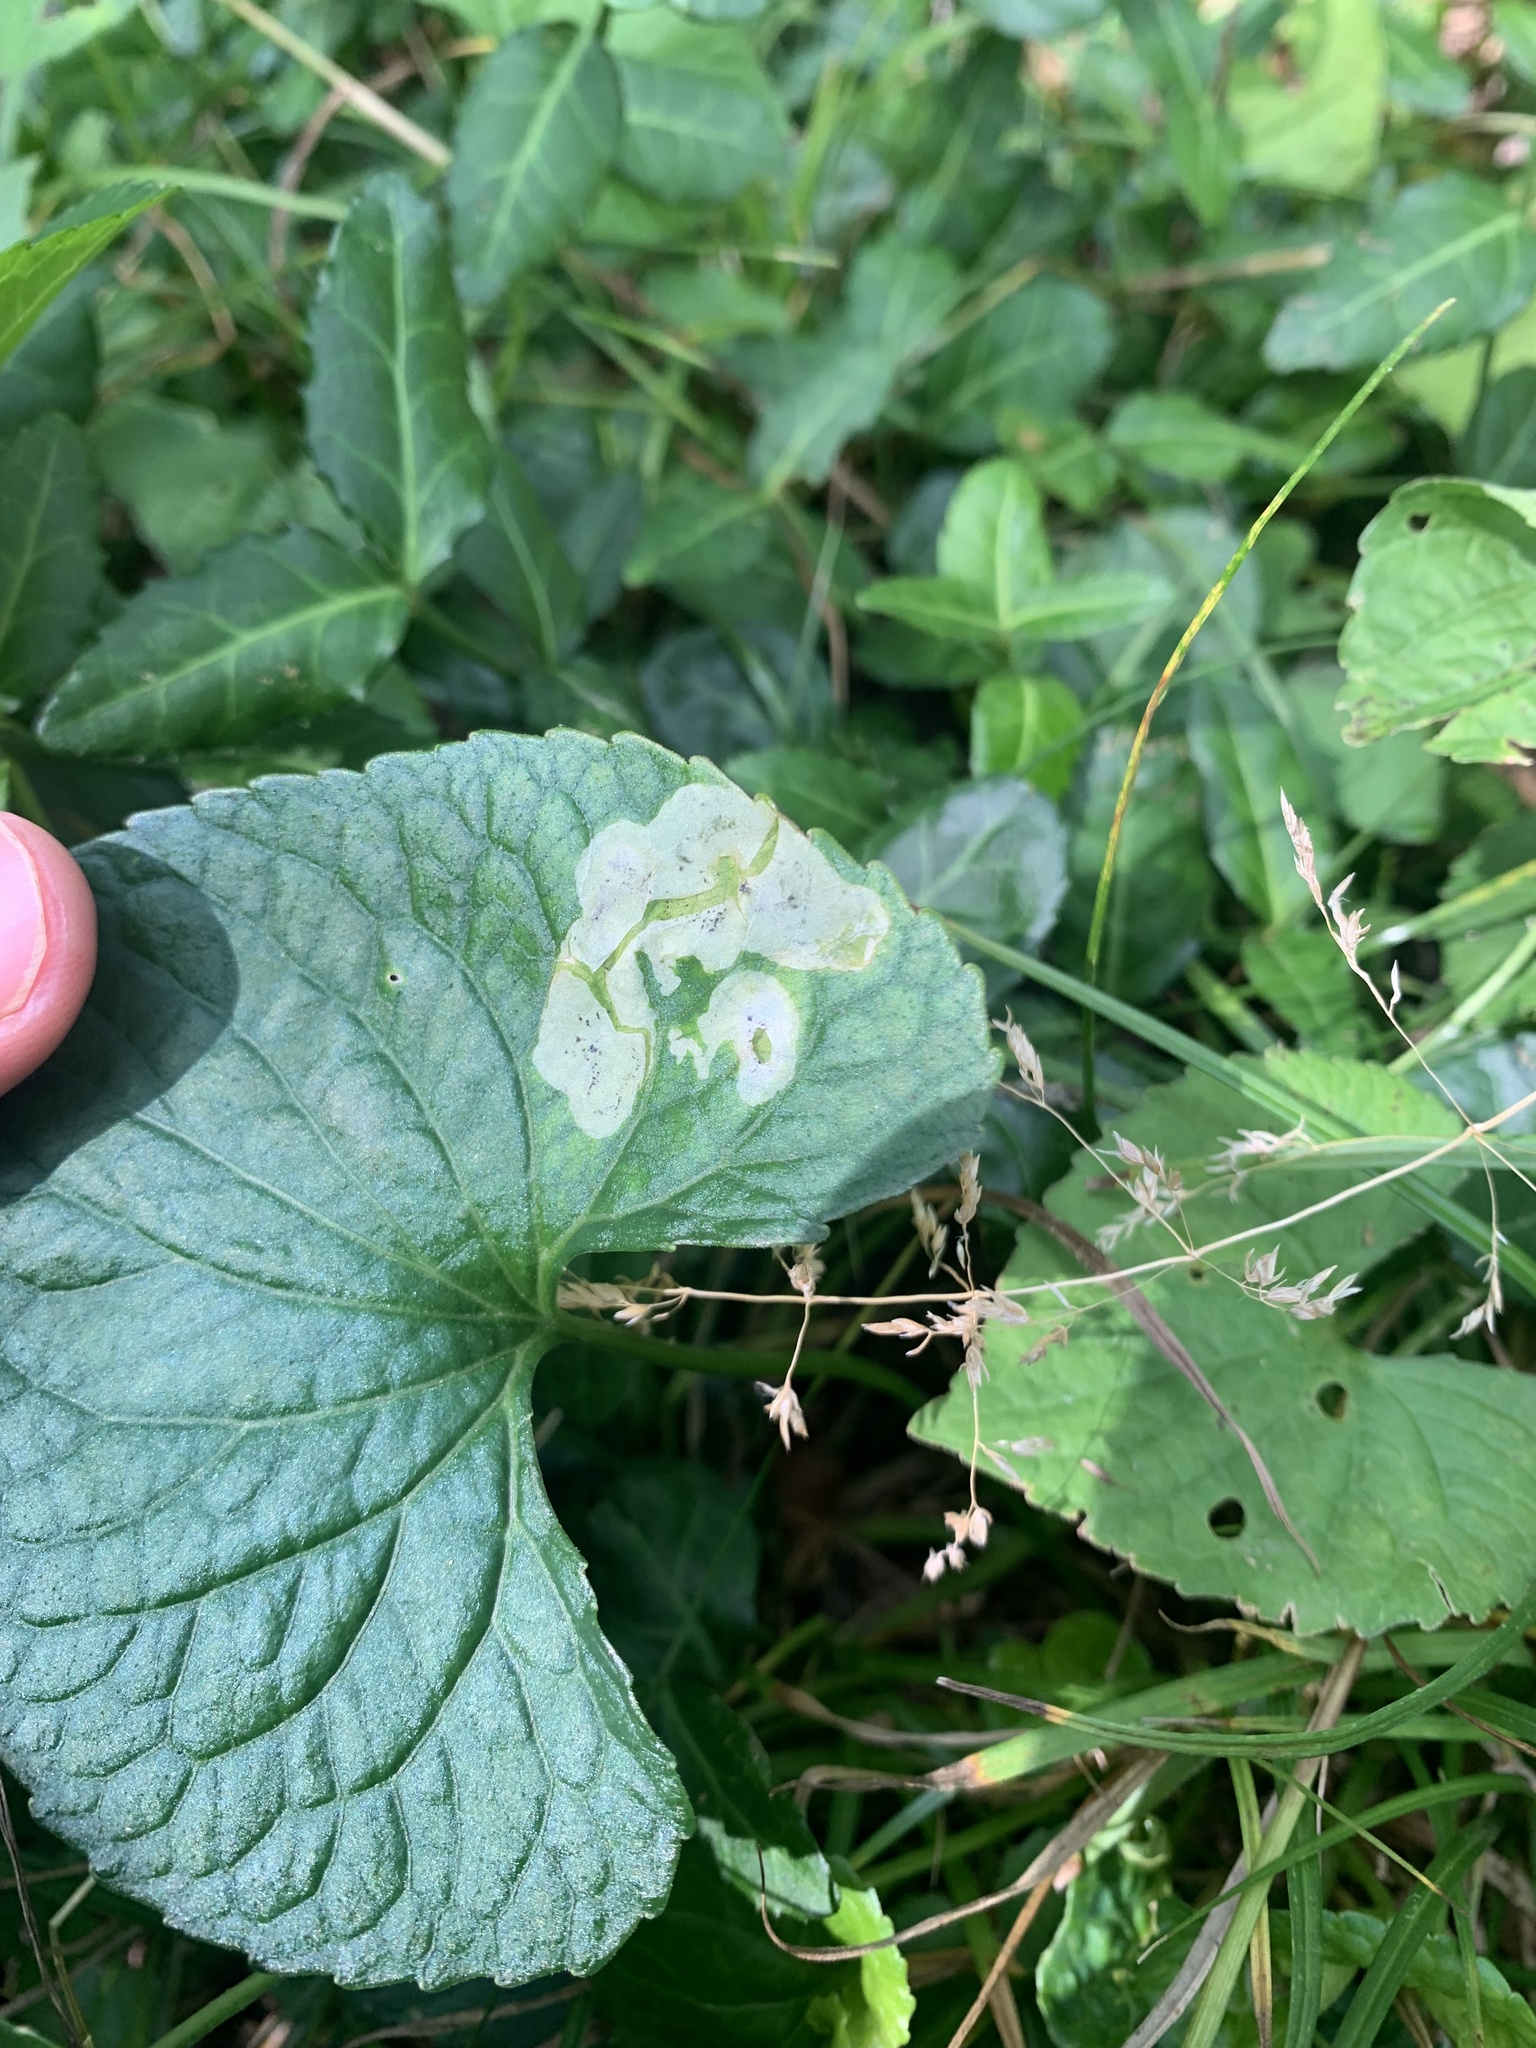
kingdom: Animalia
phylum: Arthropoda
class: Insecta
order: Diptera
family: Agromyzidae
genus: Liriomyza
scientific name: Liriomyza violivora
